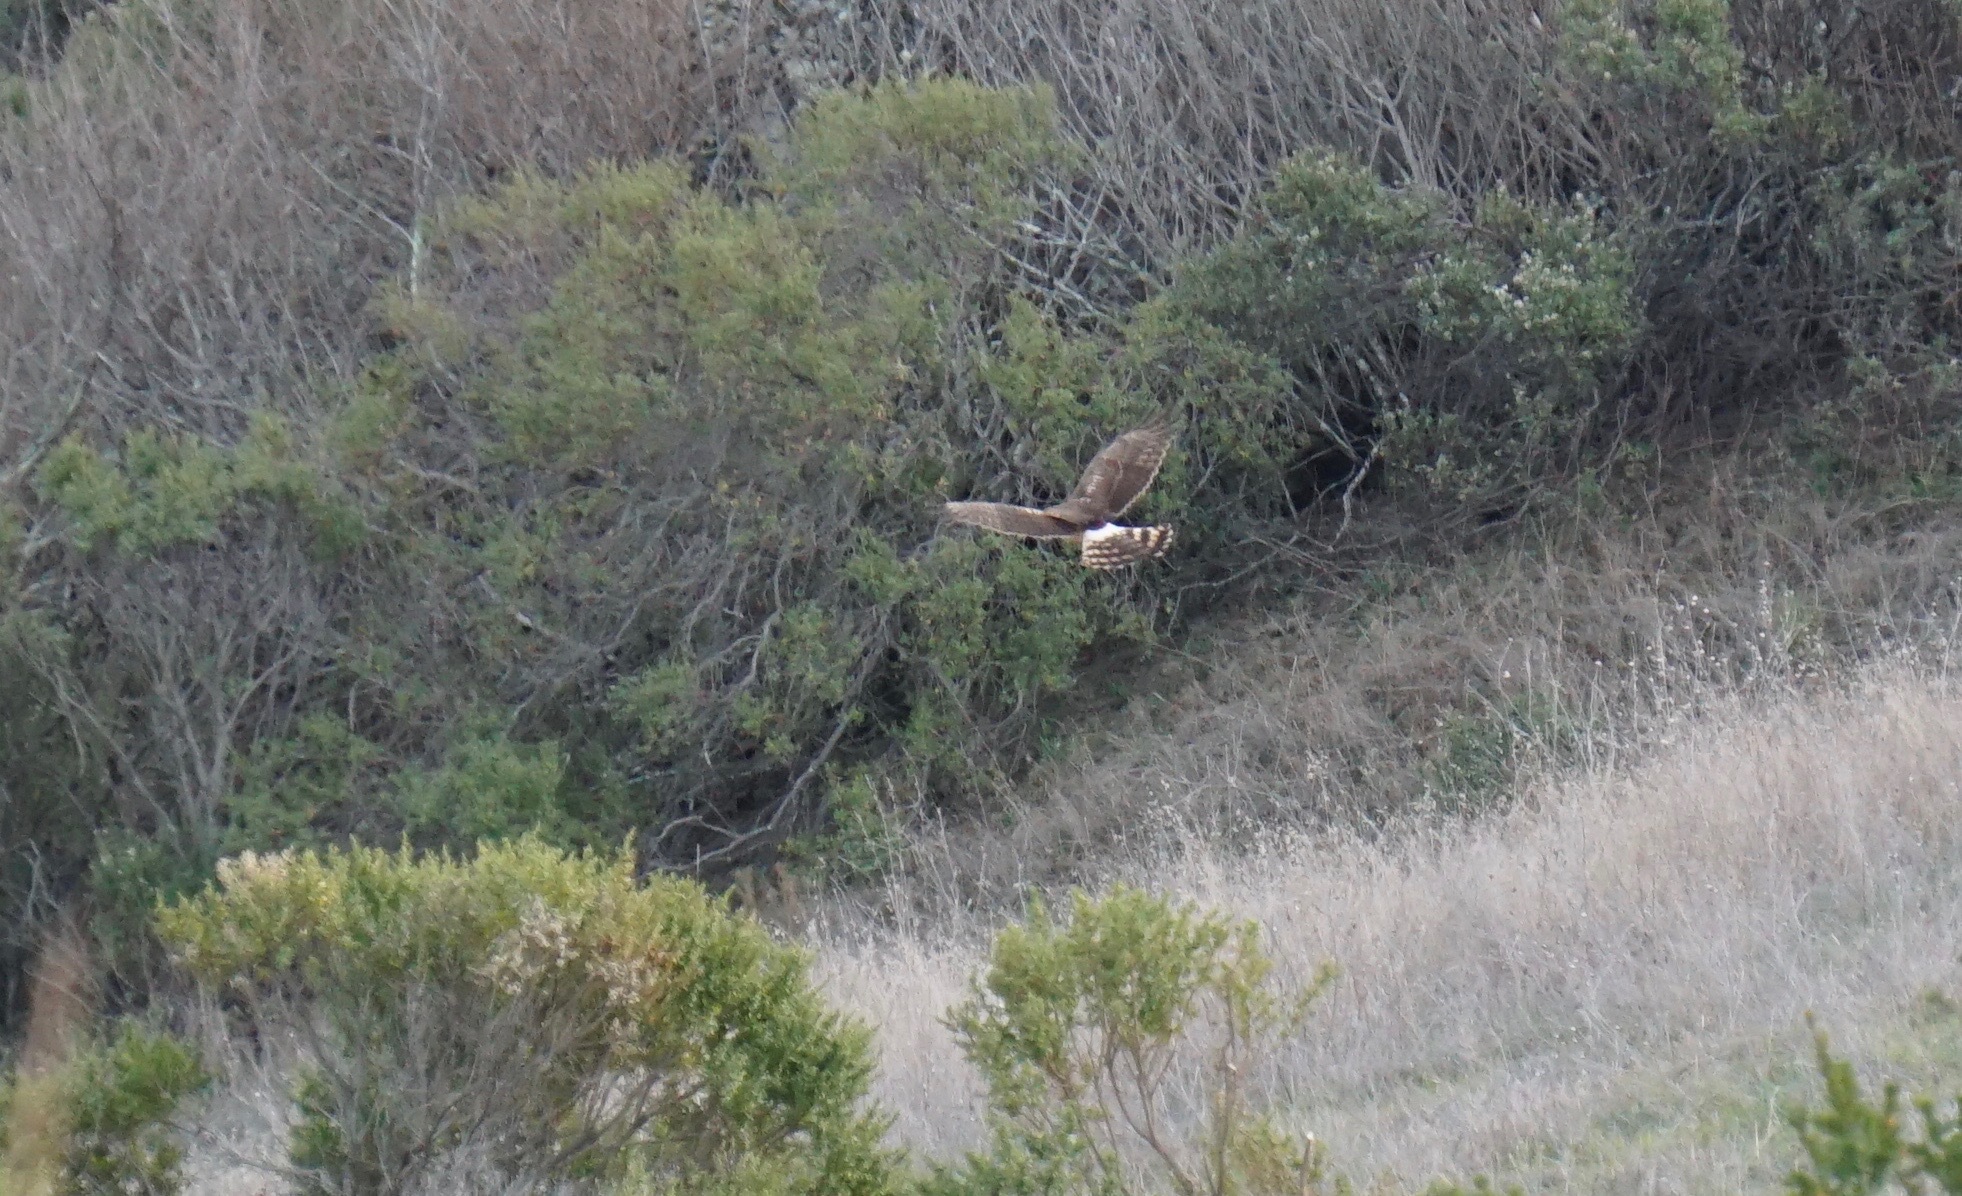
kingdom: Animalia
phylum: Chordata
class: Aves
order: Accipitriformes
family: Accipitridae
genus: Circus
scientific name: Circus cyaneus
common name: Hen harrier
